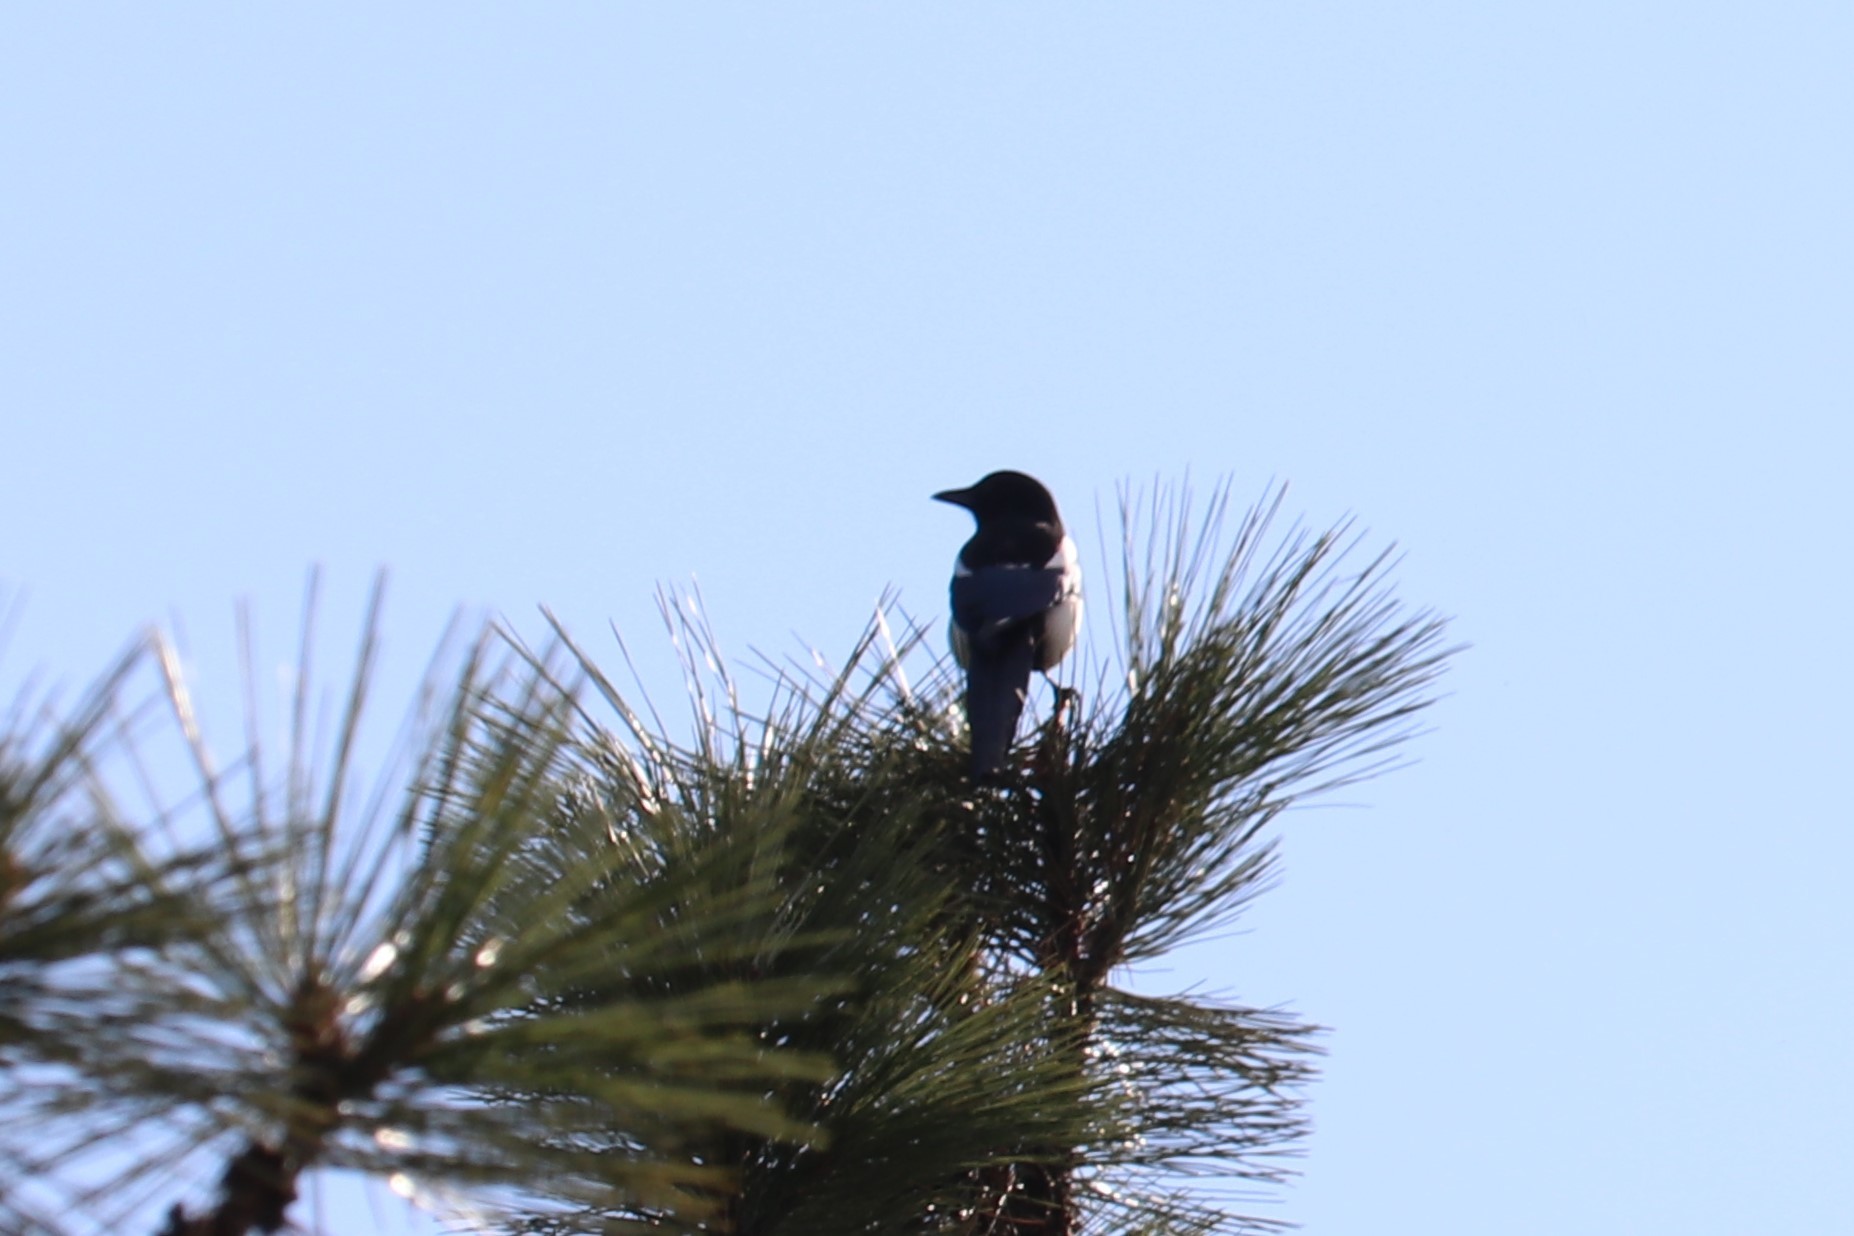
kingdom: Animalia
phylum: Chordata
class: Aves
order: Passeriformes
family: Corvidae
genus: Pica
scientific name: Pica hudsonia
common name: Black-billed magpie
